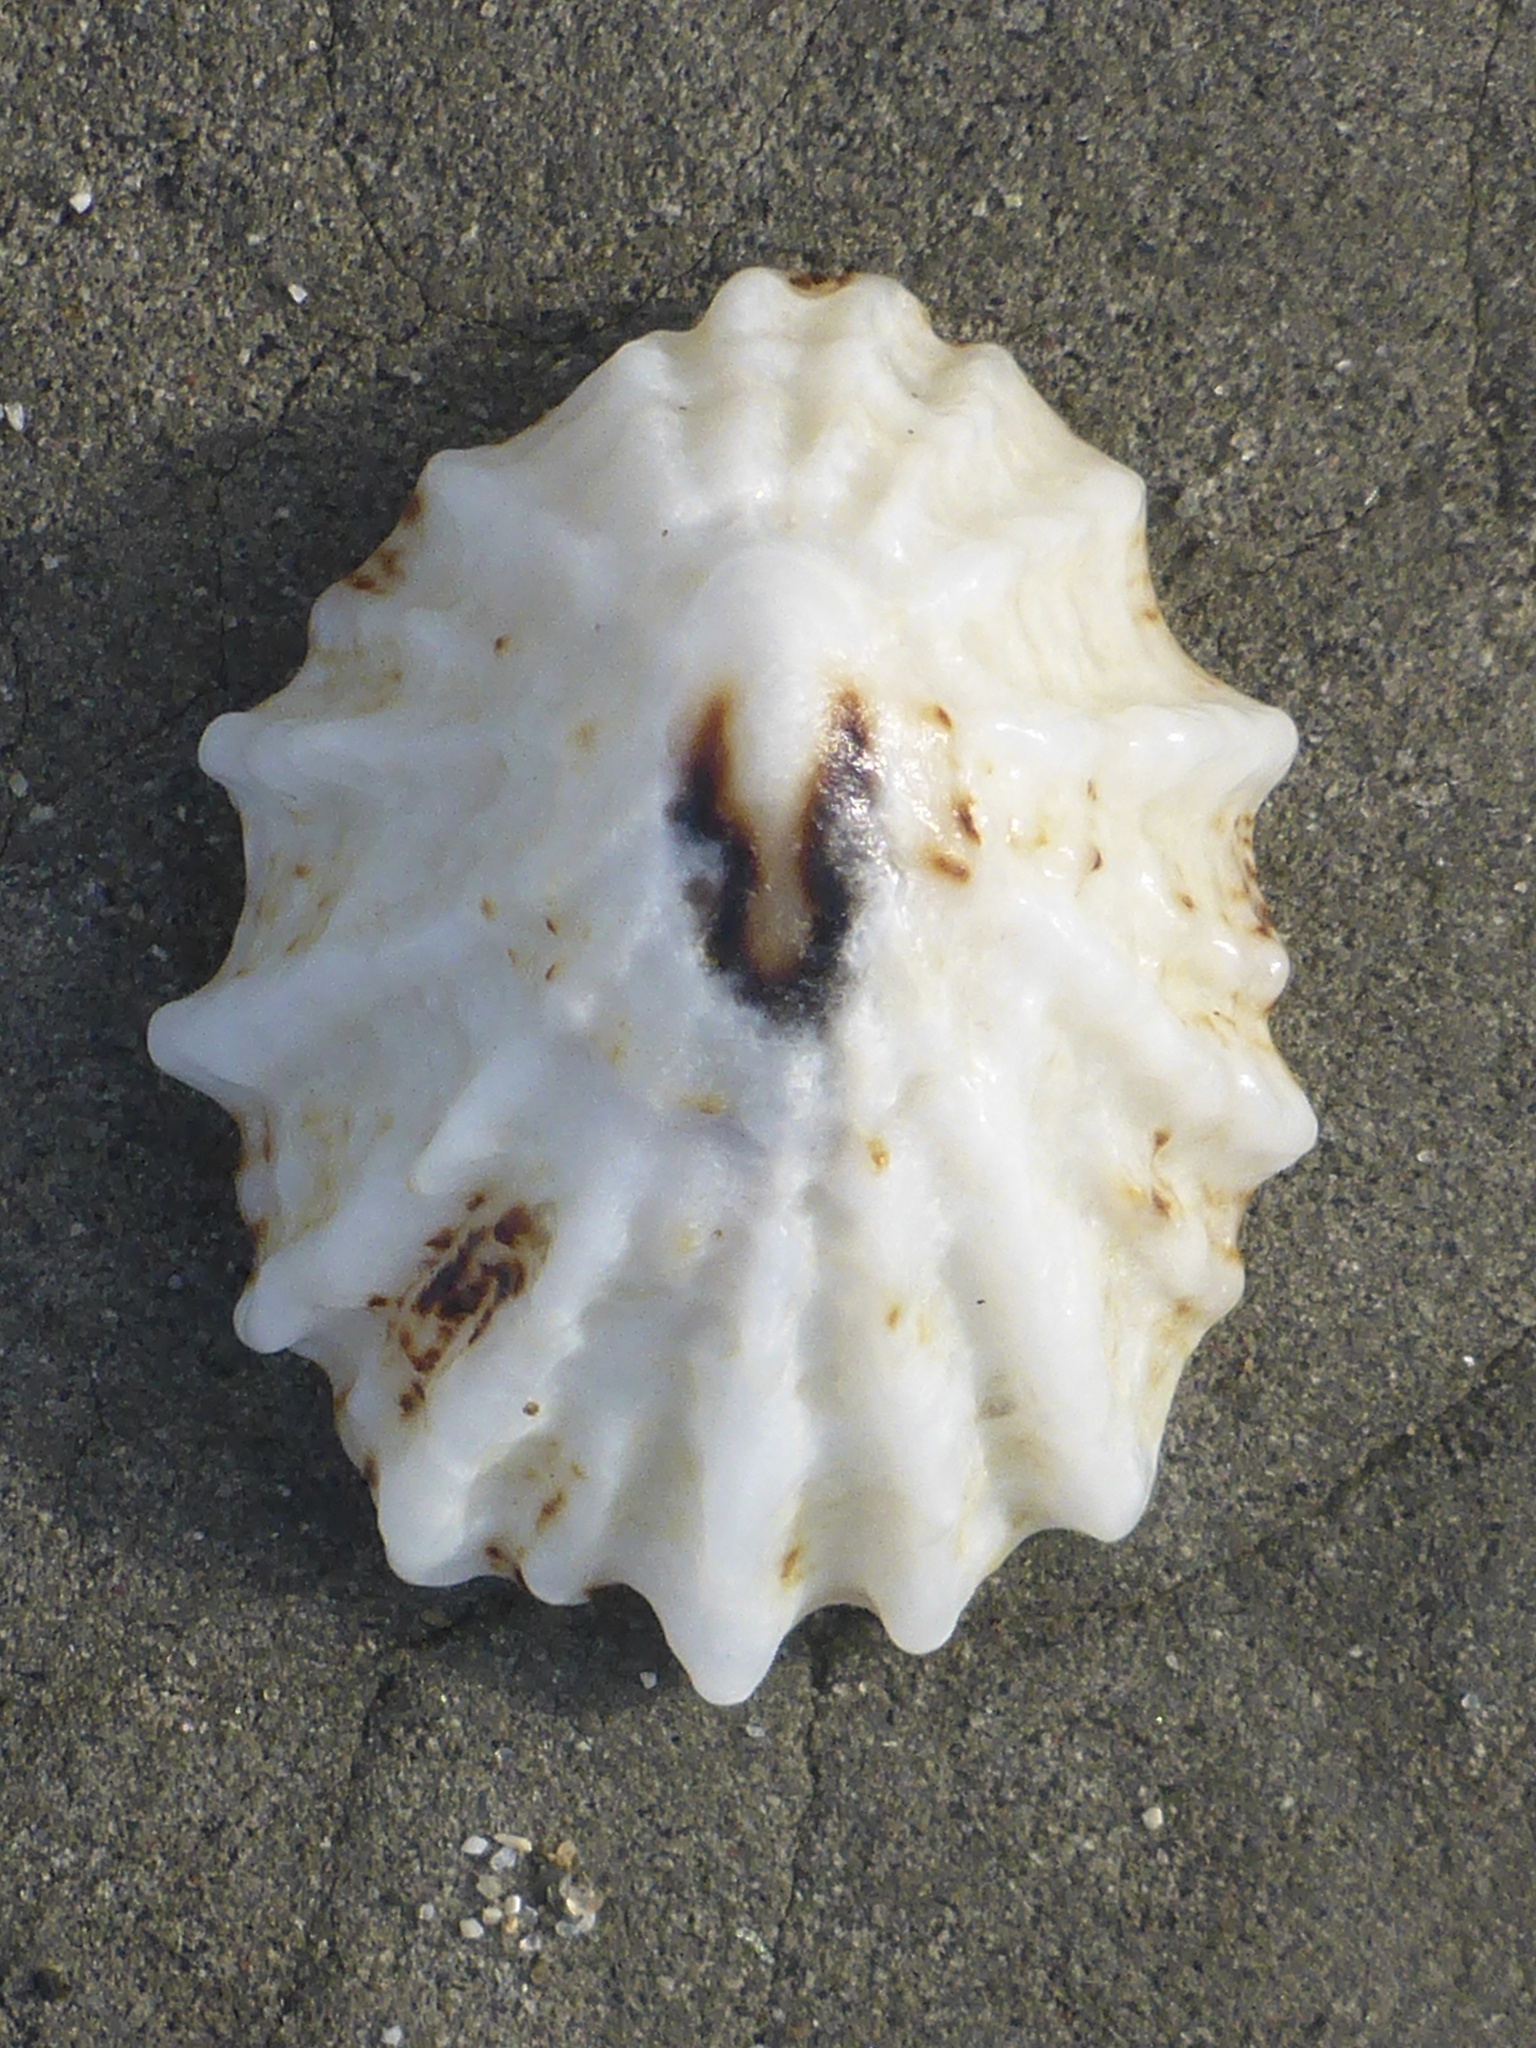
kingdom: Animalia
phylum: Mollusca
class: Gastropoda
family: Lottiidae
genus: Lottia
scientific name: Lottia scabra
